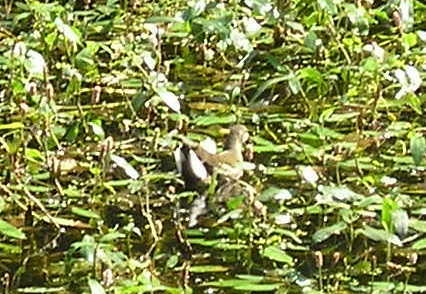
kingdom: Animalia
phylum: Chordata
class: Aves
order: Gruiformes
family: Rallidae
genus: Gallinula
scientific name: Gallinula chloropus
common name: Common moorhen
